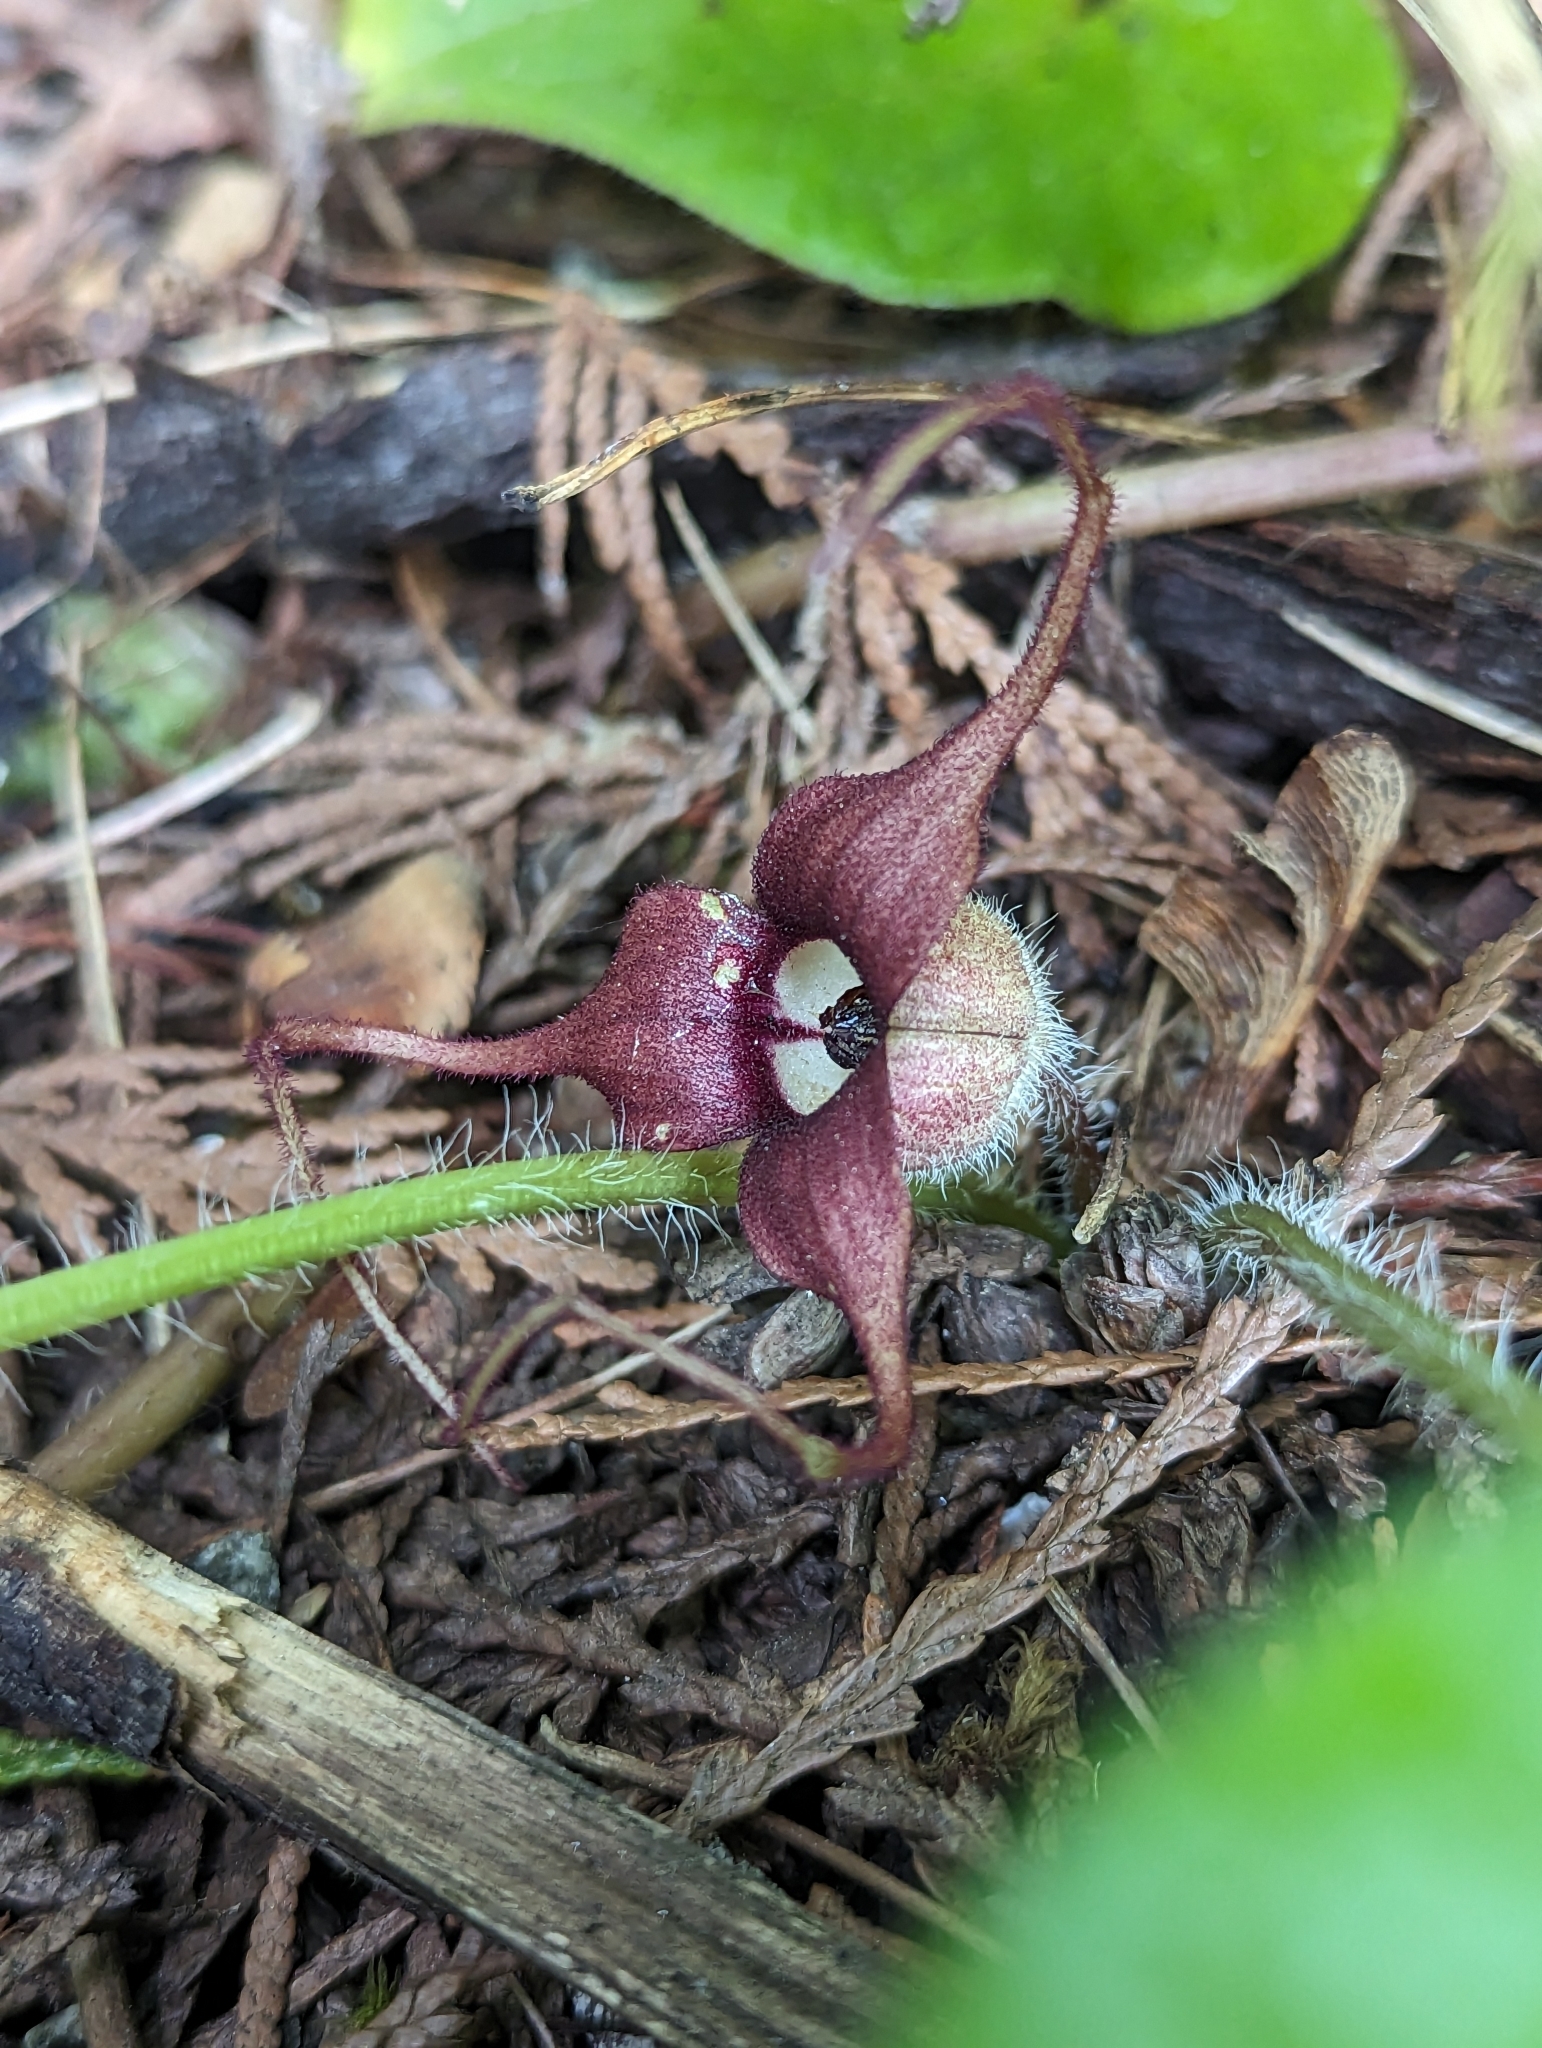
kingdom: Plantae
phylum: Tracheophyta
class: Magnoliopsida
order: Piperales
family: Aristolochiaceae
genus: Asarum
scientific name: Asarum caudatum
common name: Wild ginger
